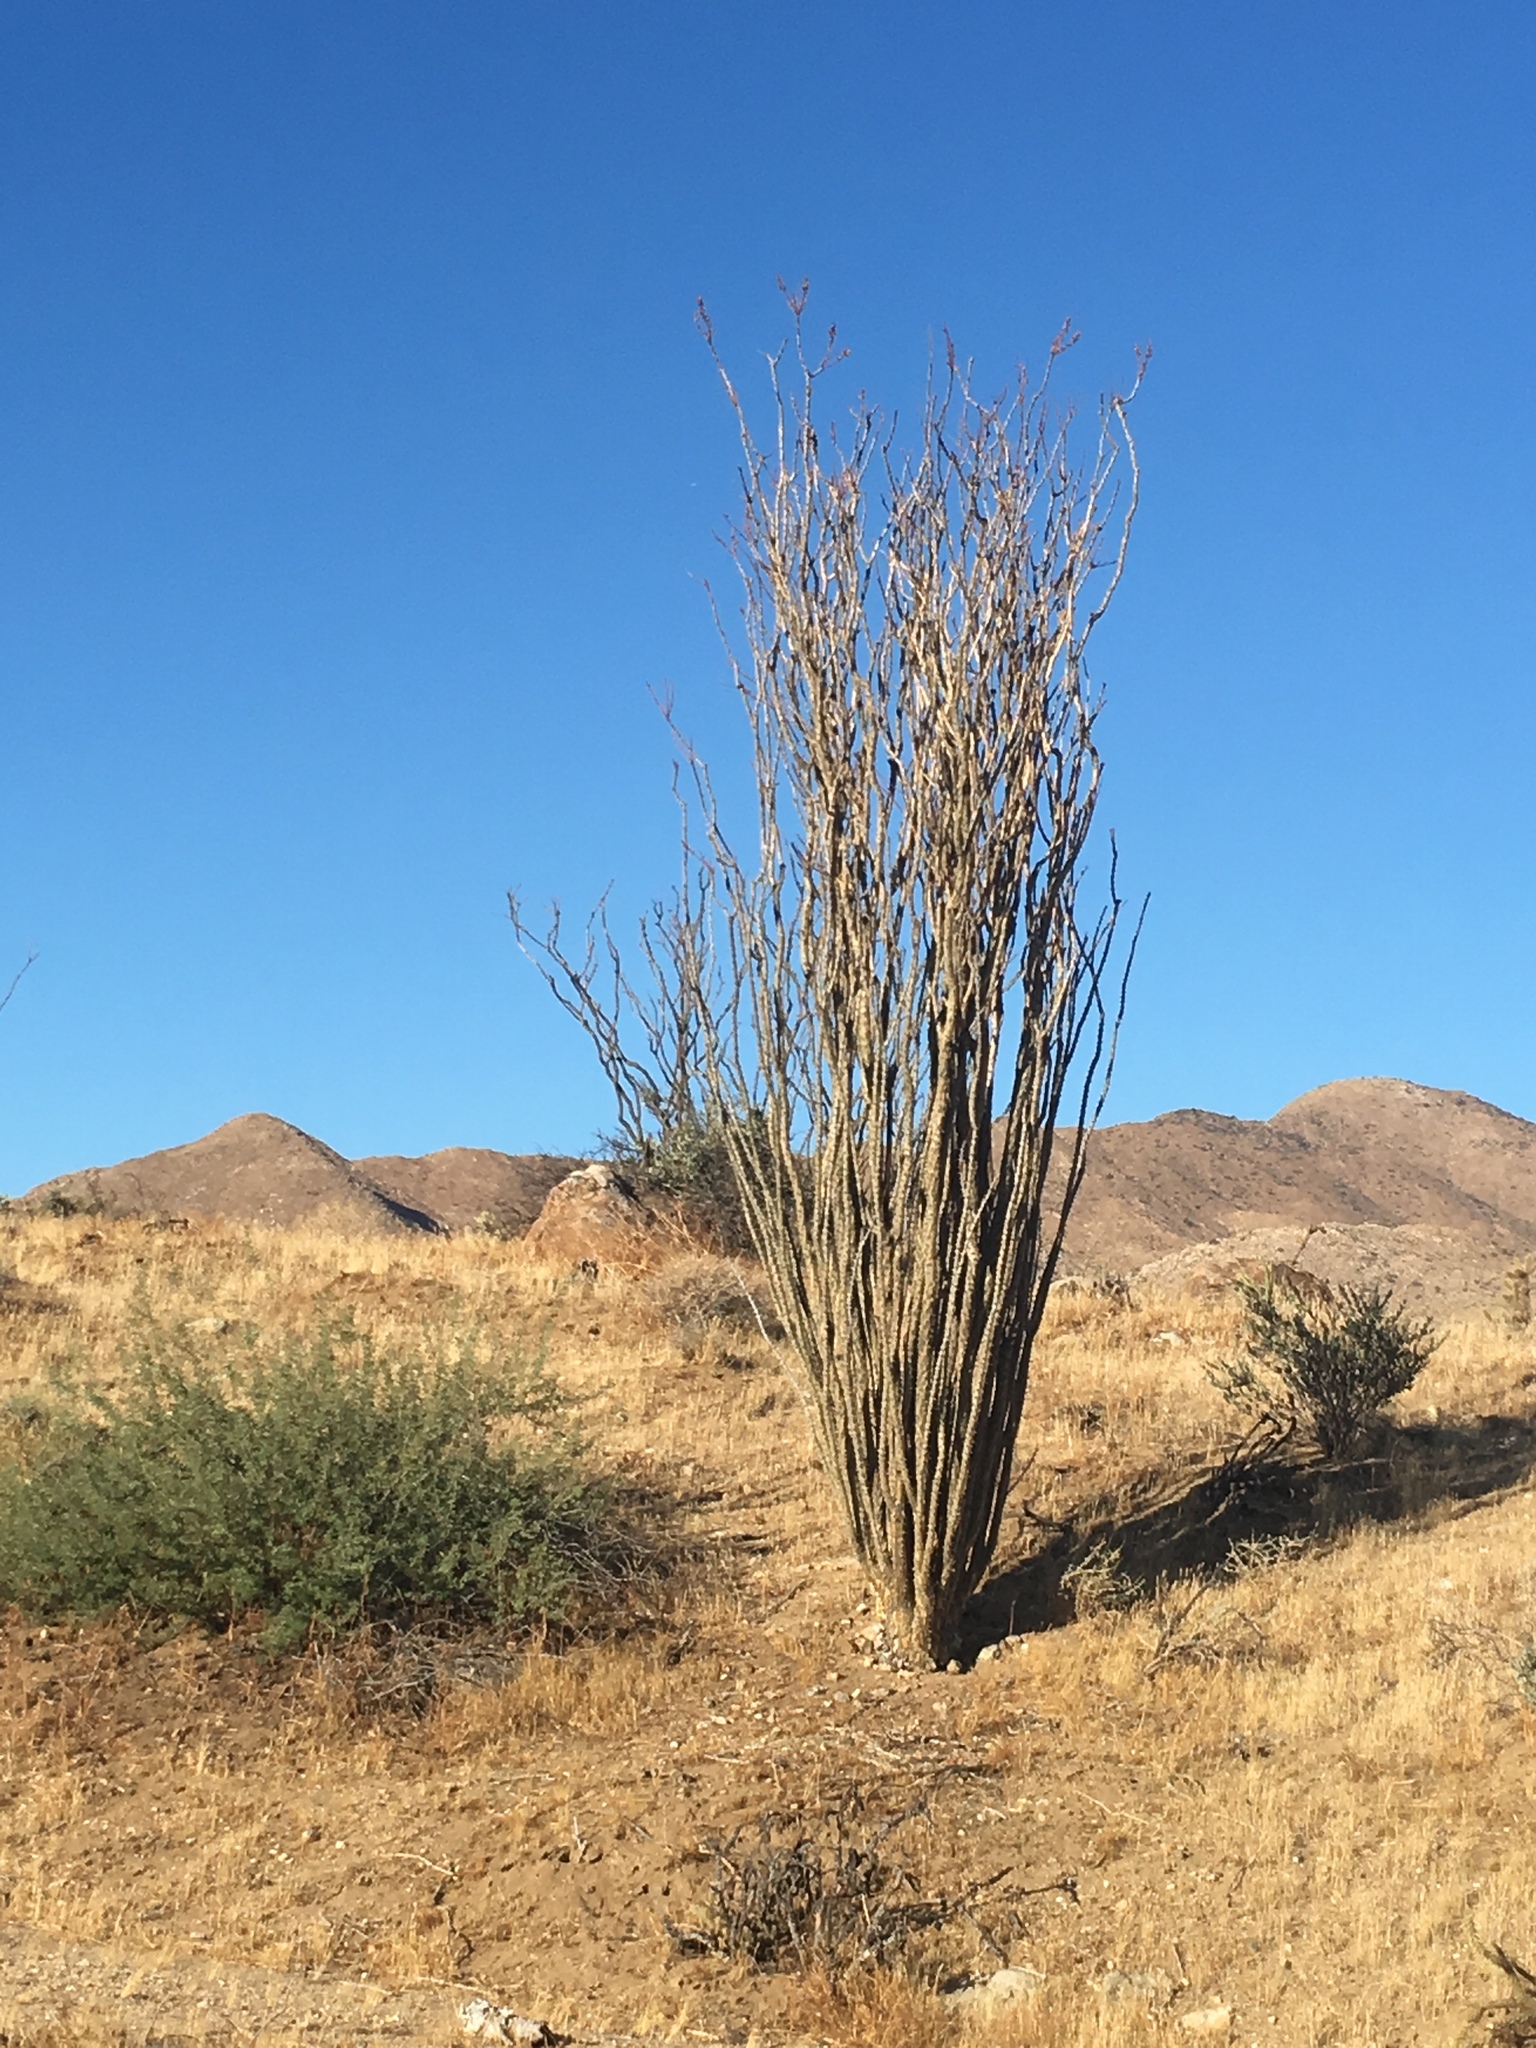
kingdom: Plantae
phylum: Tracheophyta
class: Magnoliopsida
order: Ericales
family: Fouquieriaceae
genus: Fouquieria
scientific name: Fouquieria splendens
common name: Vine-cactus
